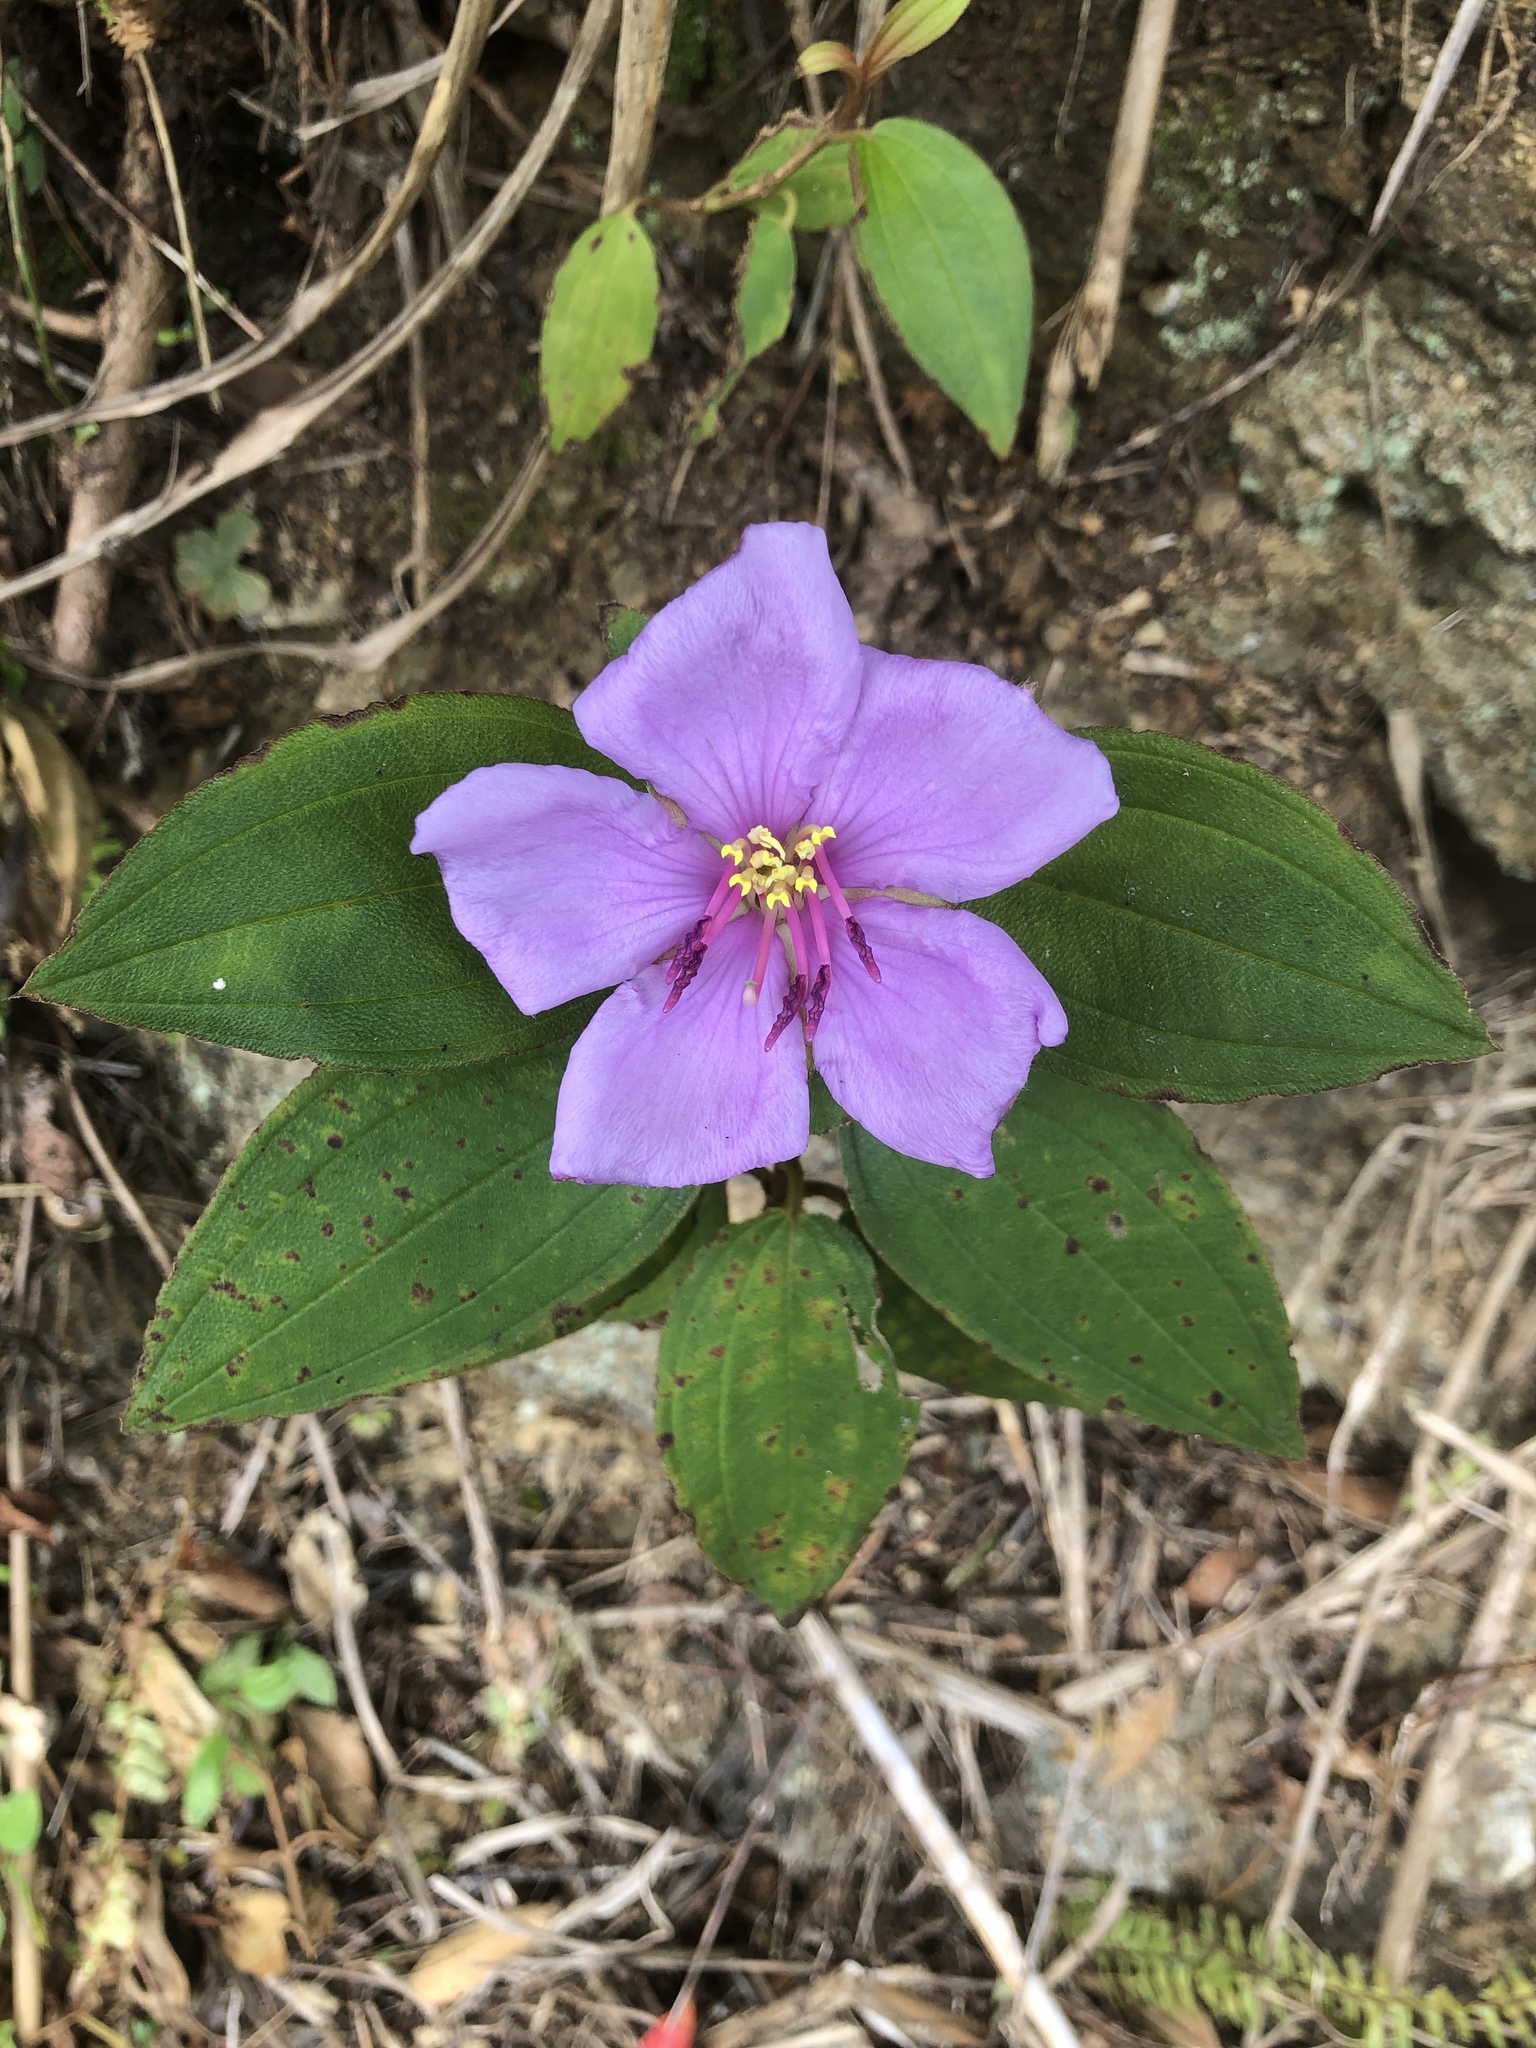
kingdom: Plantae
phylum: Tracheophyta
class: Magnoliopsida
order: Myrtales
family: Melastomataceae
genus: Melastoma
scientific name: Melastoma malabathricum
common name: Indian-rhododendron
